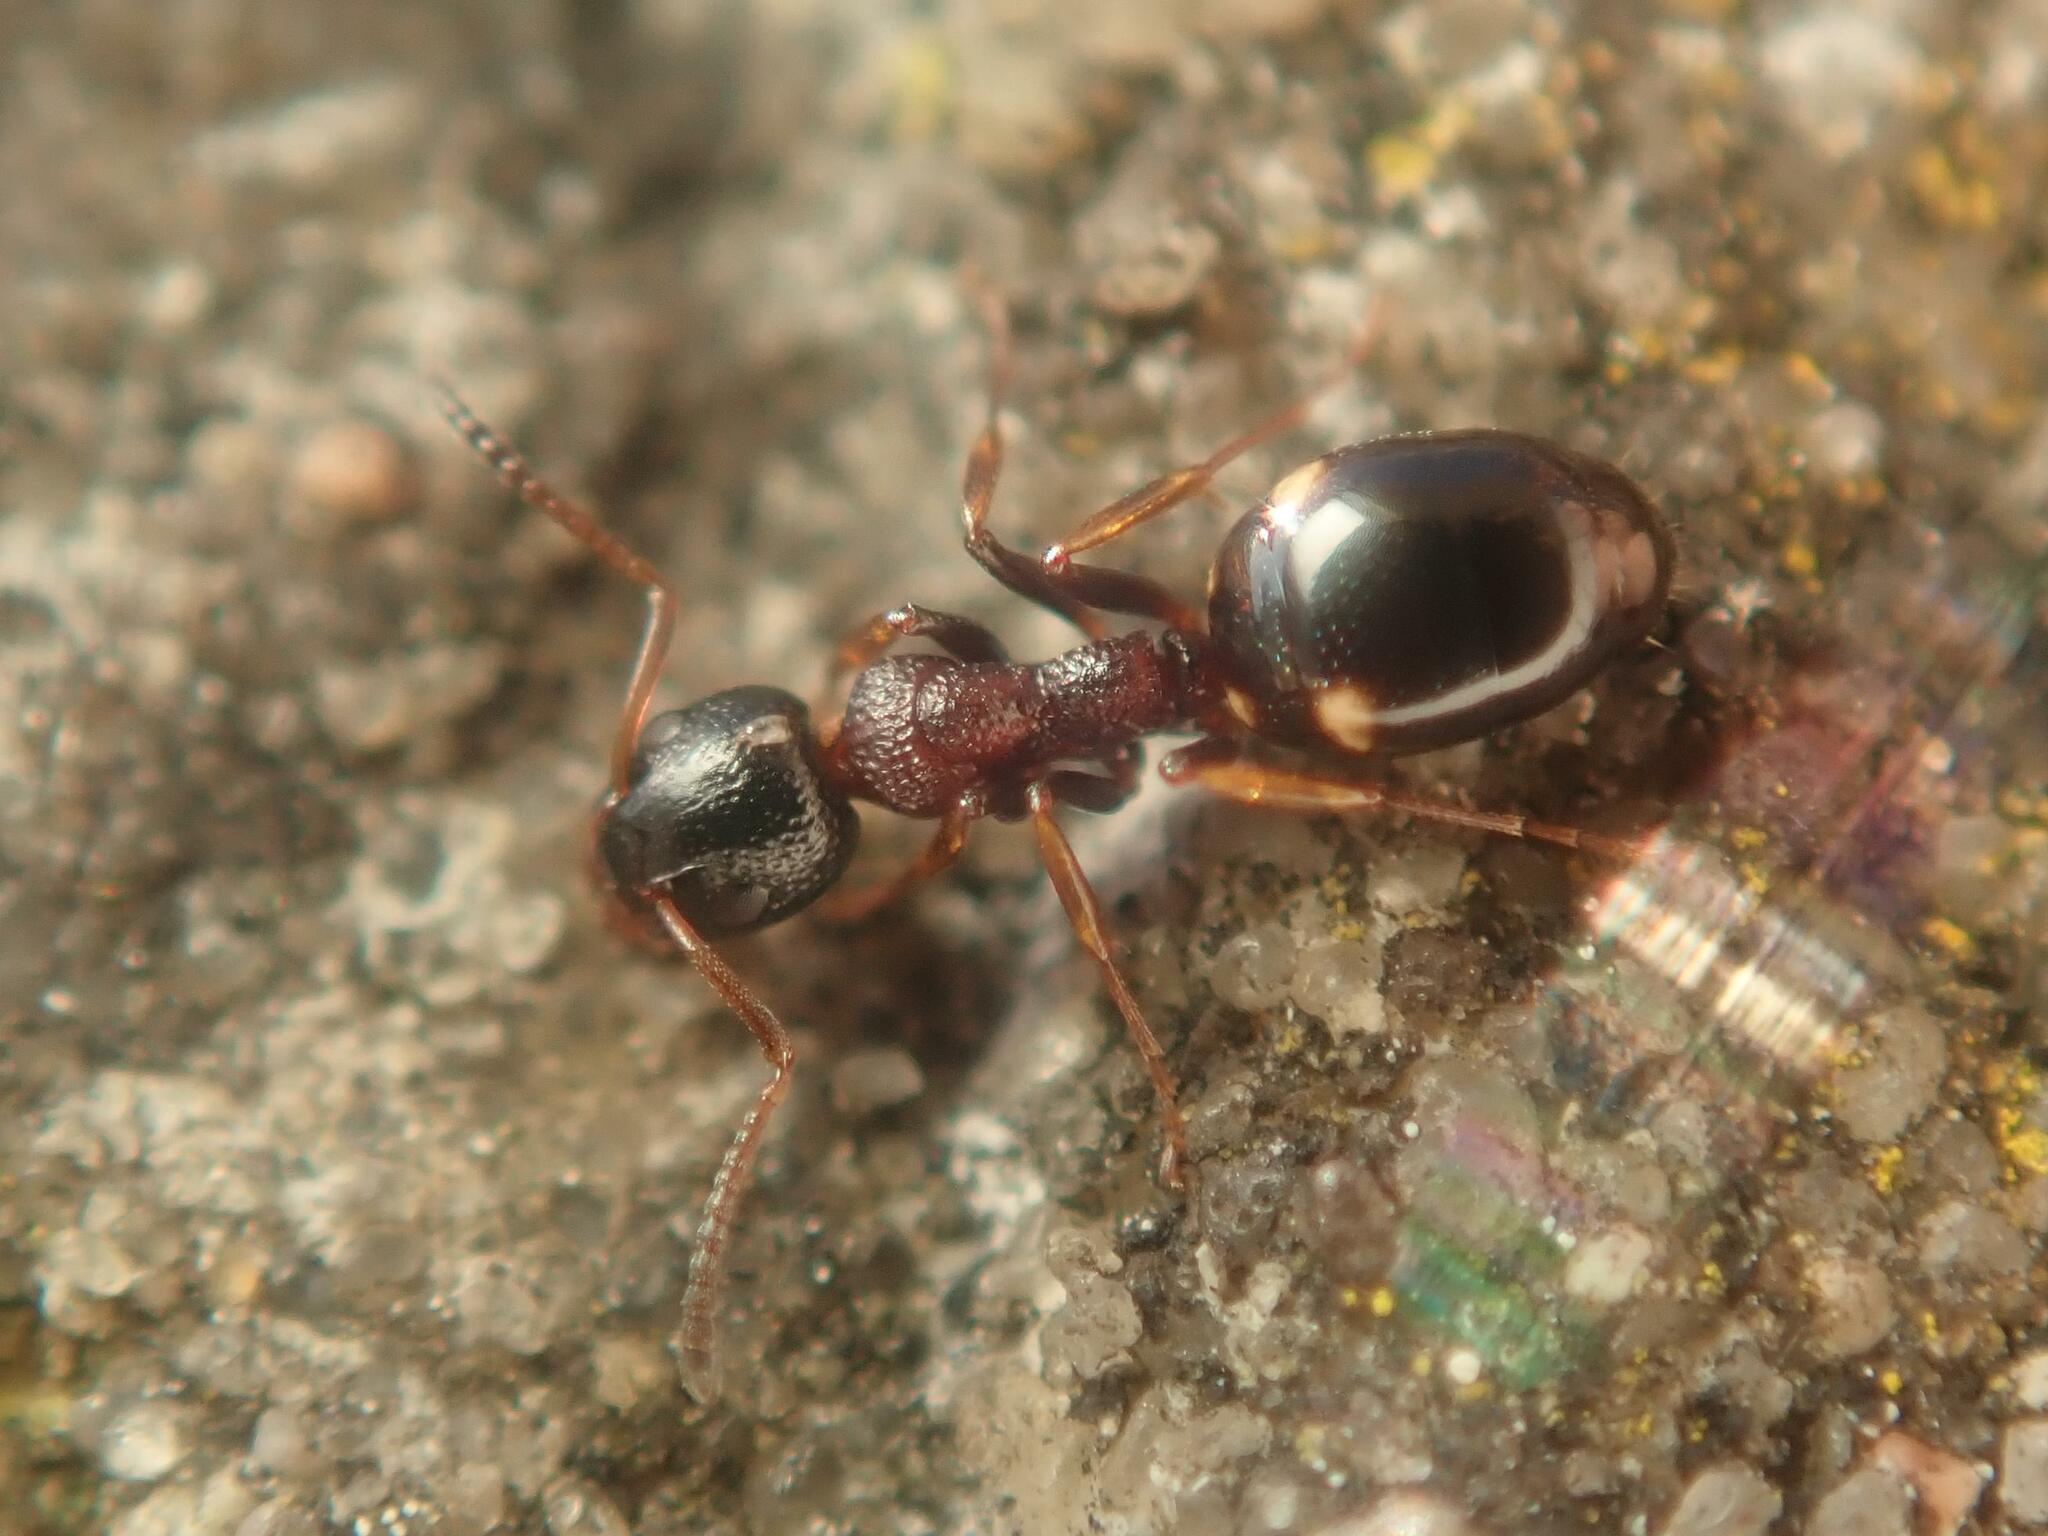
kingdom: Animalia
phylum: Arthropoda
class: Insecta
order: Hymenoptera
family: Formicidae
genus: Dolichoderus
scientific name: Dolichoderus quadripunctatus
